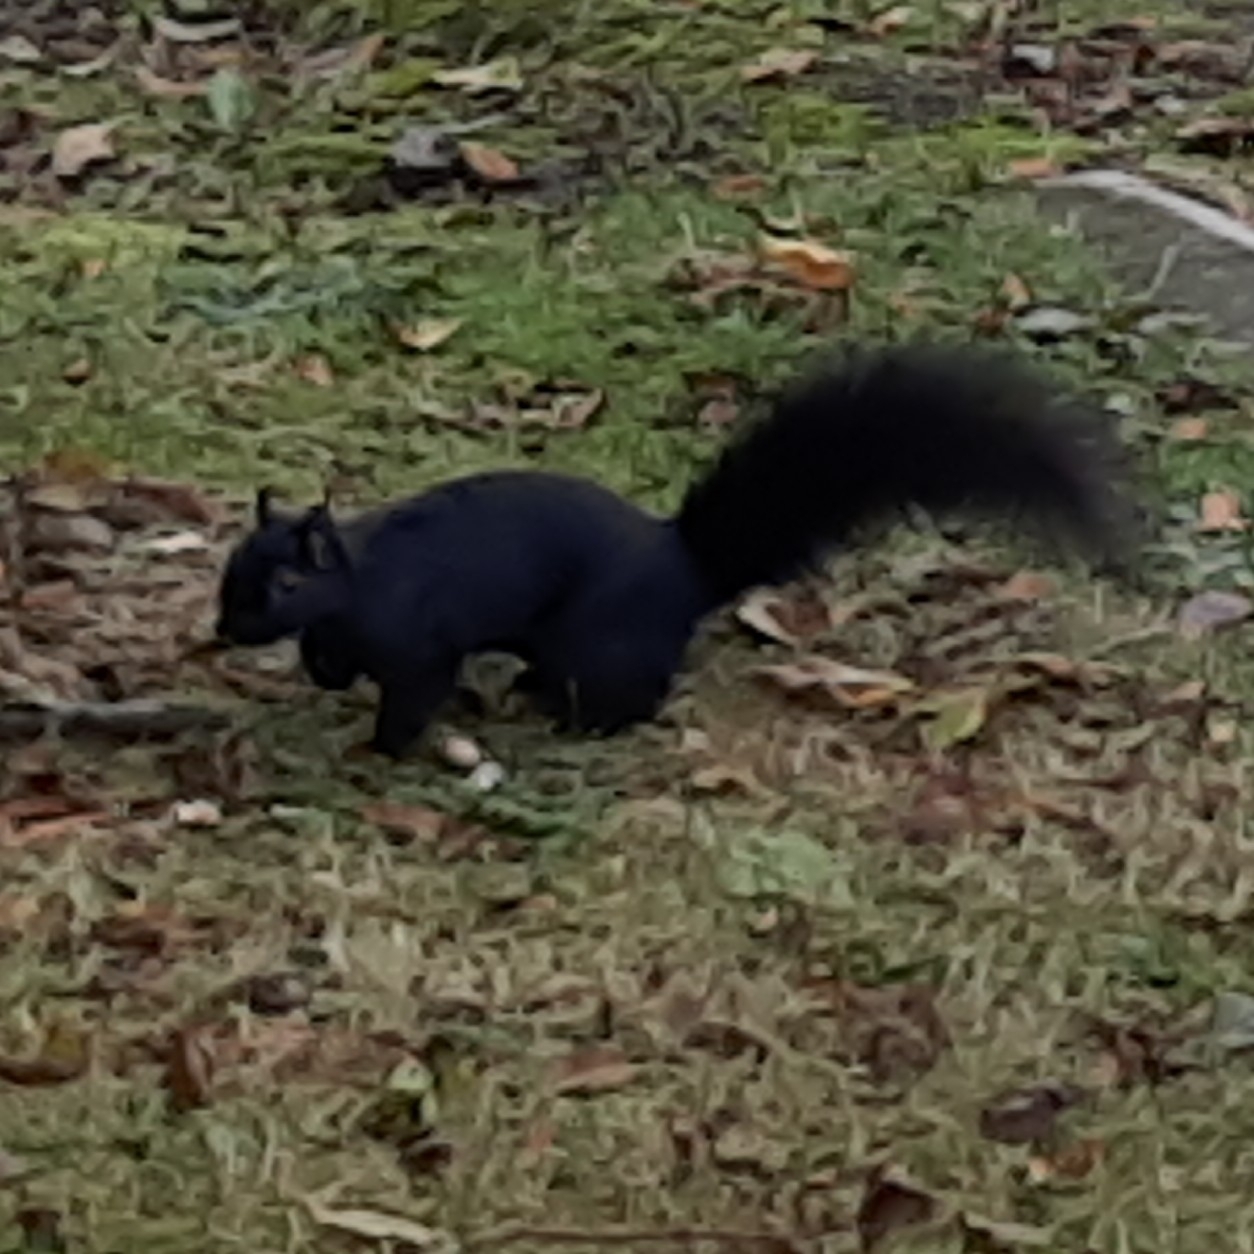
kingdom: Animalia
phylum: Chordata
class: Mammalia
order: Rodentia
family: Sciuridae
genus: Sciurus
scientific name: Sciurus carolinensis
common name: Eastern gray squirrel
